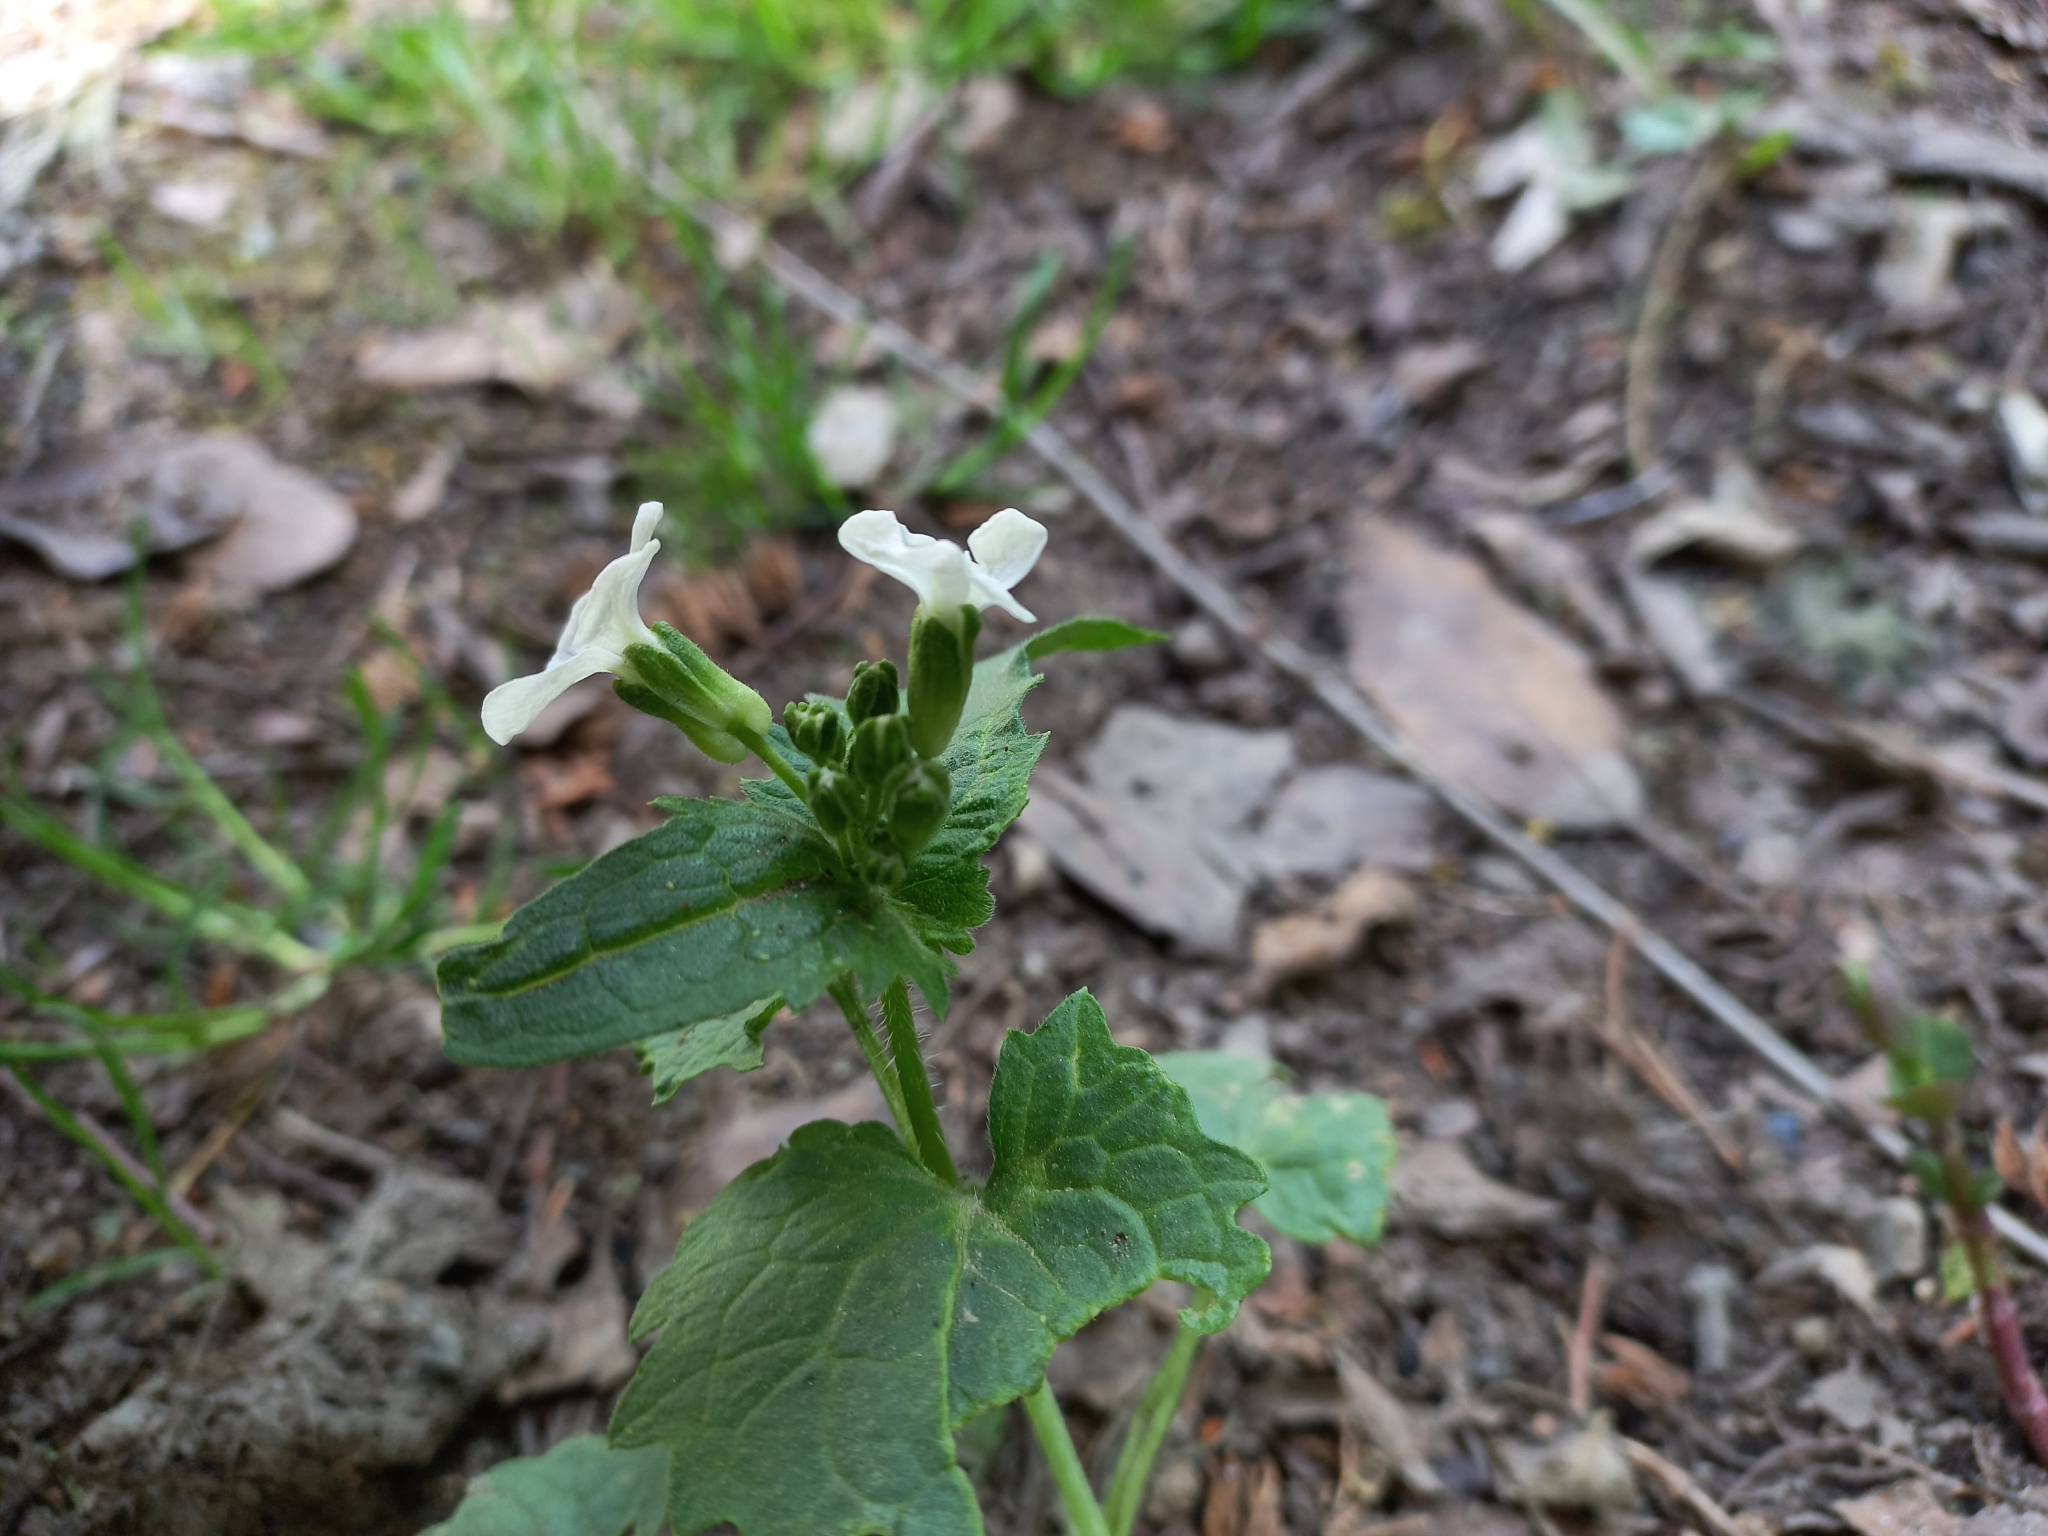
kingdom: Plantae
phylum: Tracheophyta
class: Magnoliopsida
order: Brassicales
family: Brassicaceae
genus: Lunaria
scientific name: Lunaria annua
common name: Honesty
